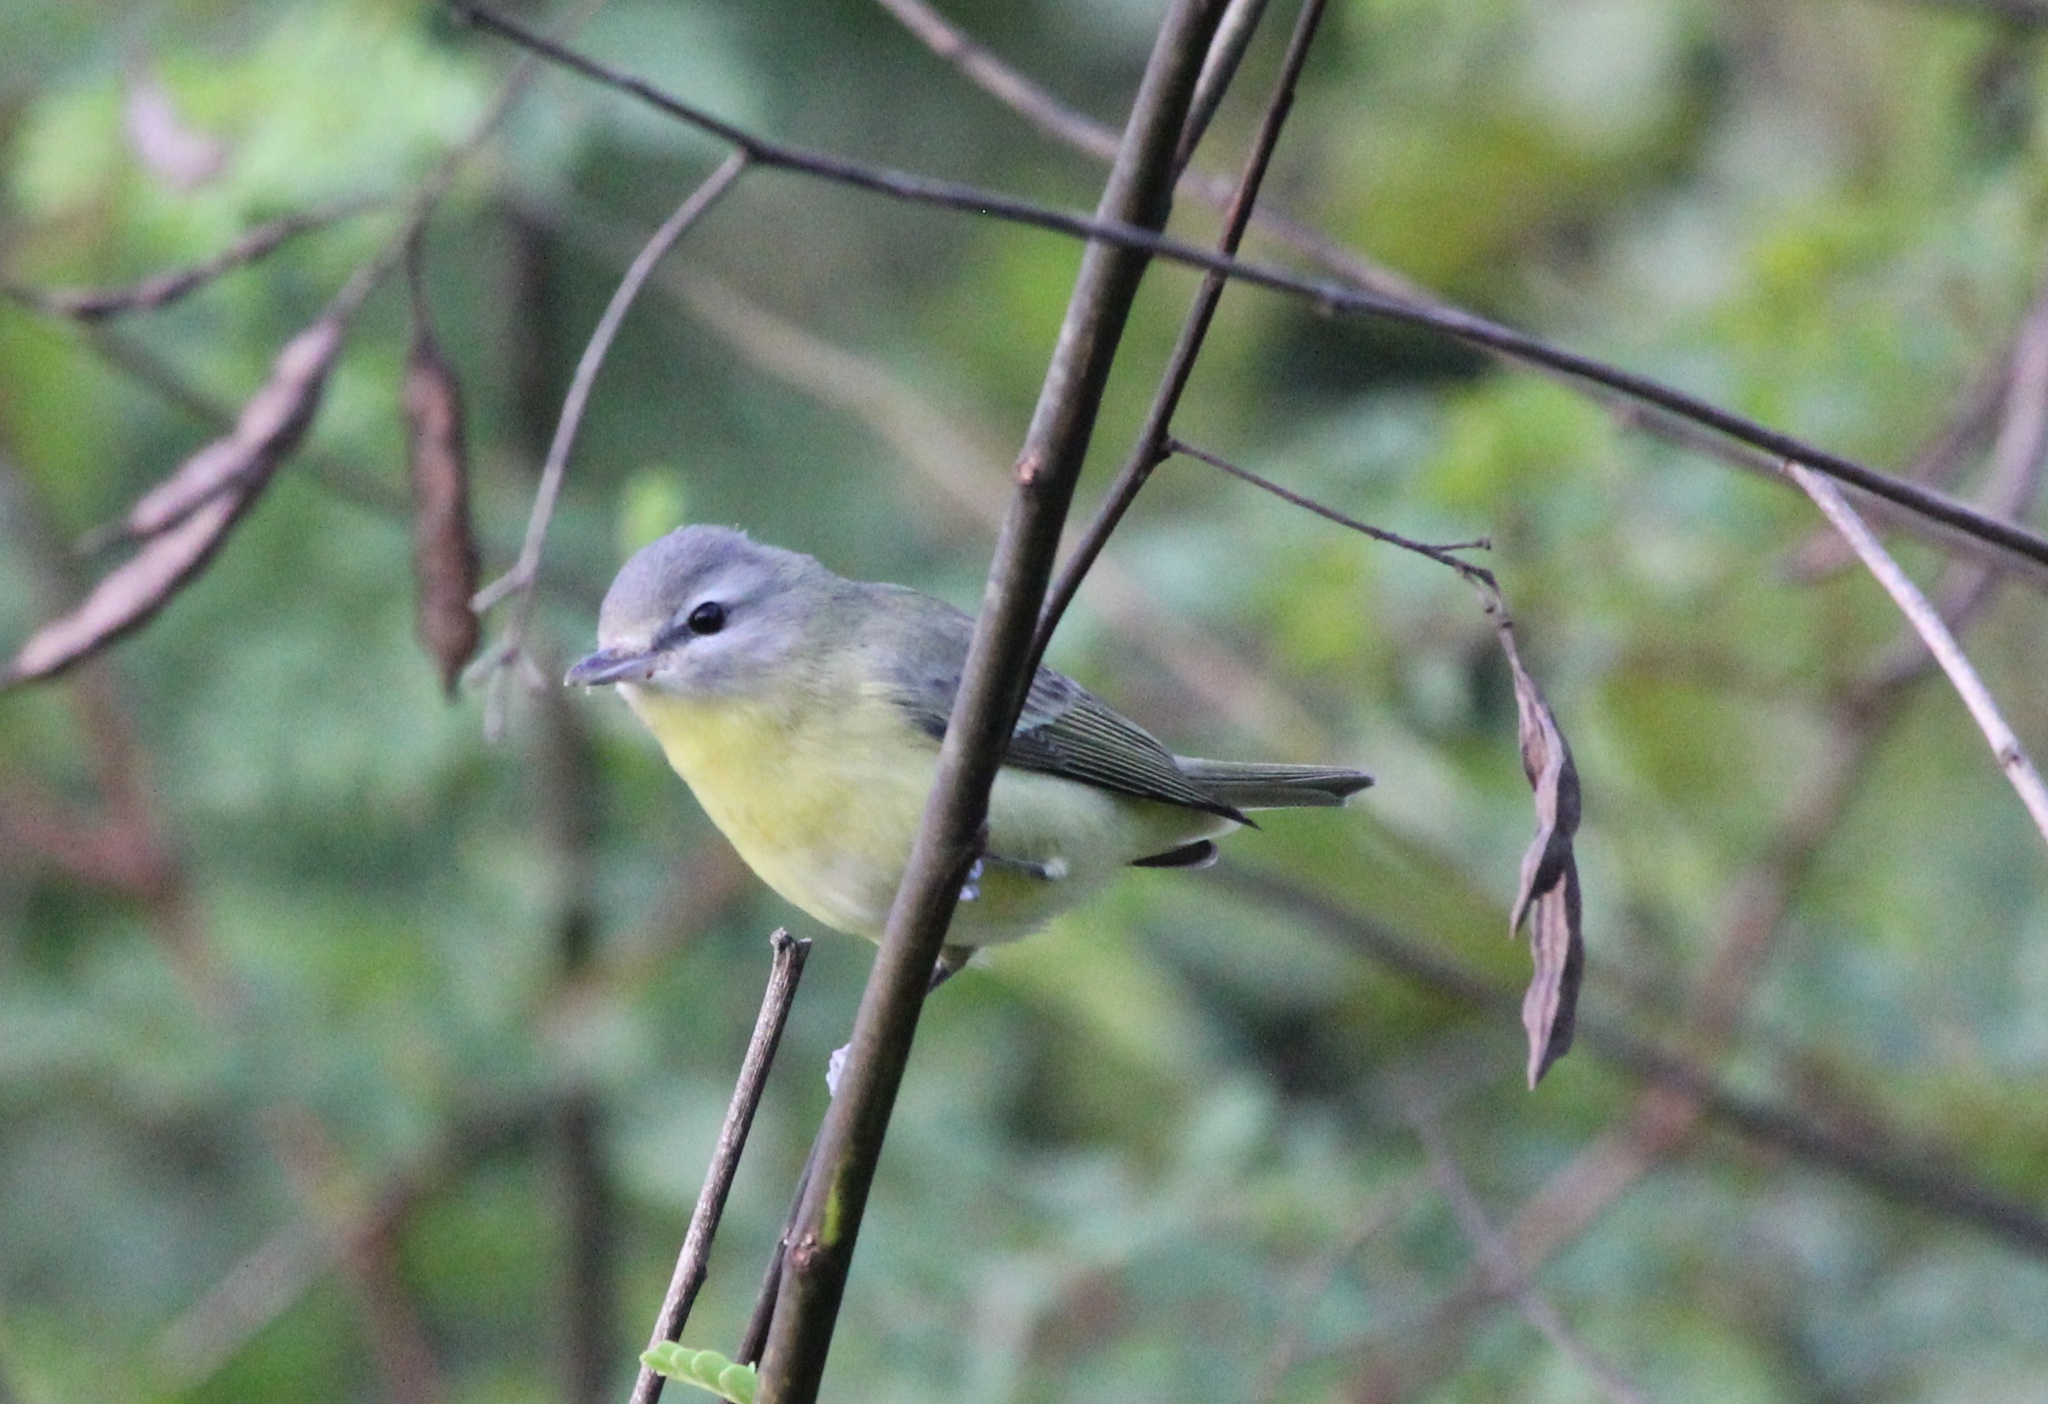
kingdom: Animalia
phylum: Chordata
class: Aves
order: Passeriformes
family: Vireonidae
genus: Vireo
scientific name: Vireo philadelphicus
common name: Philadelphia vireo
